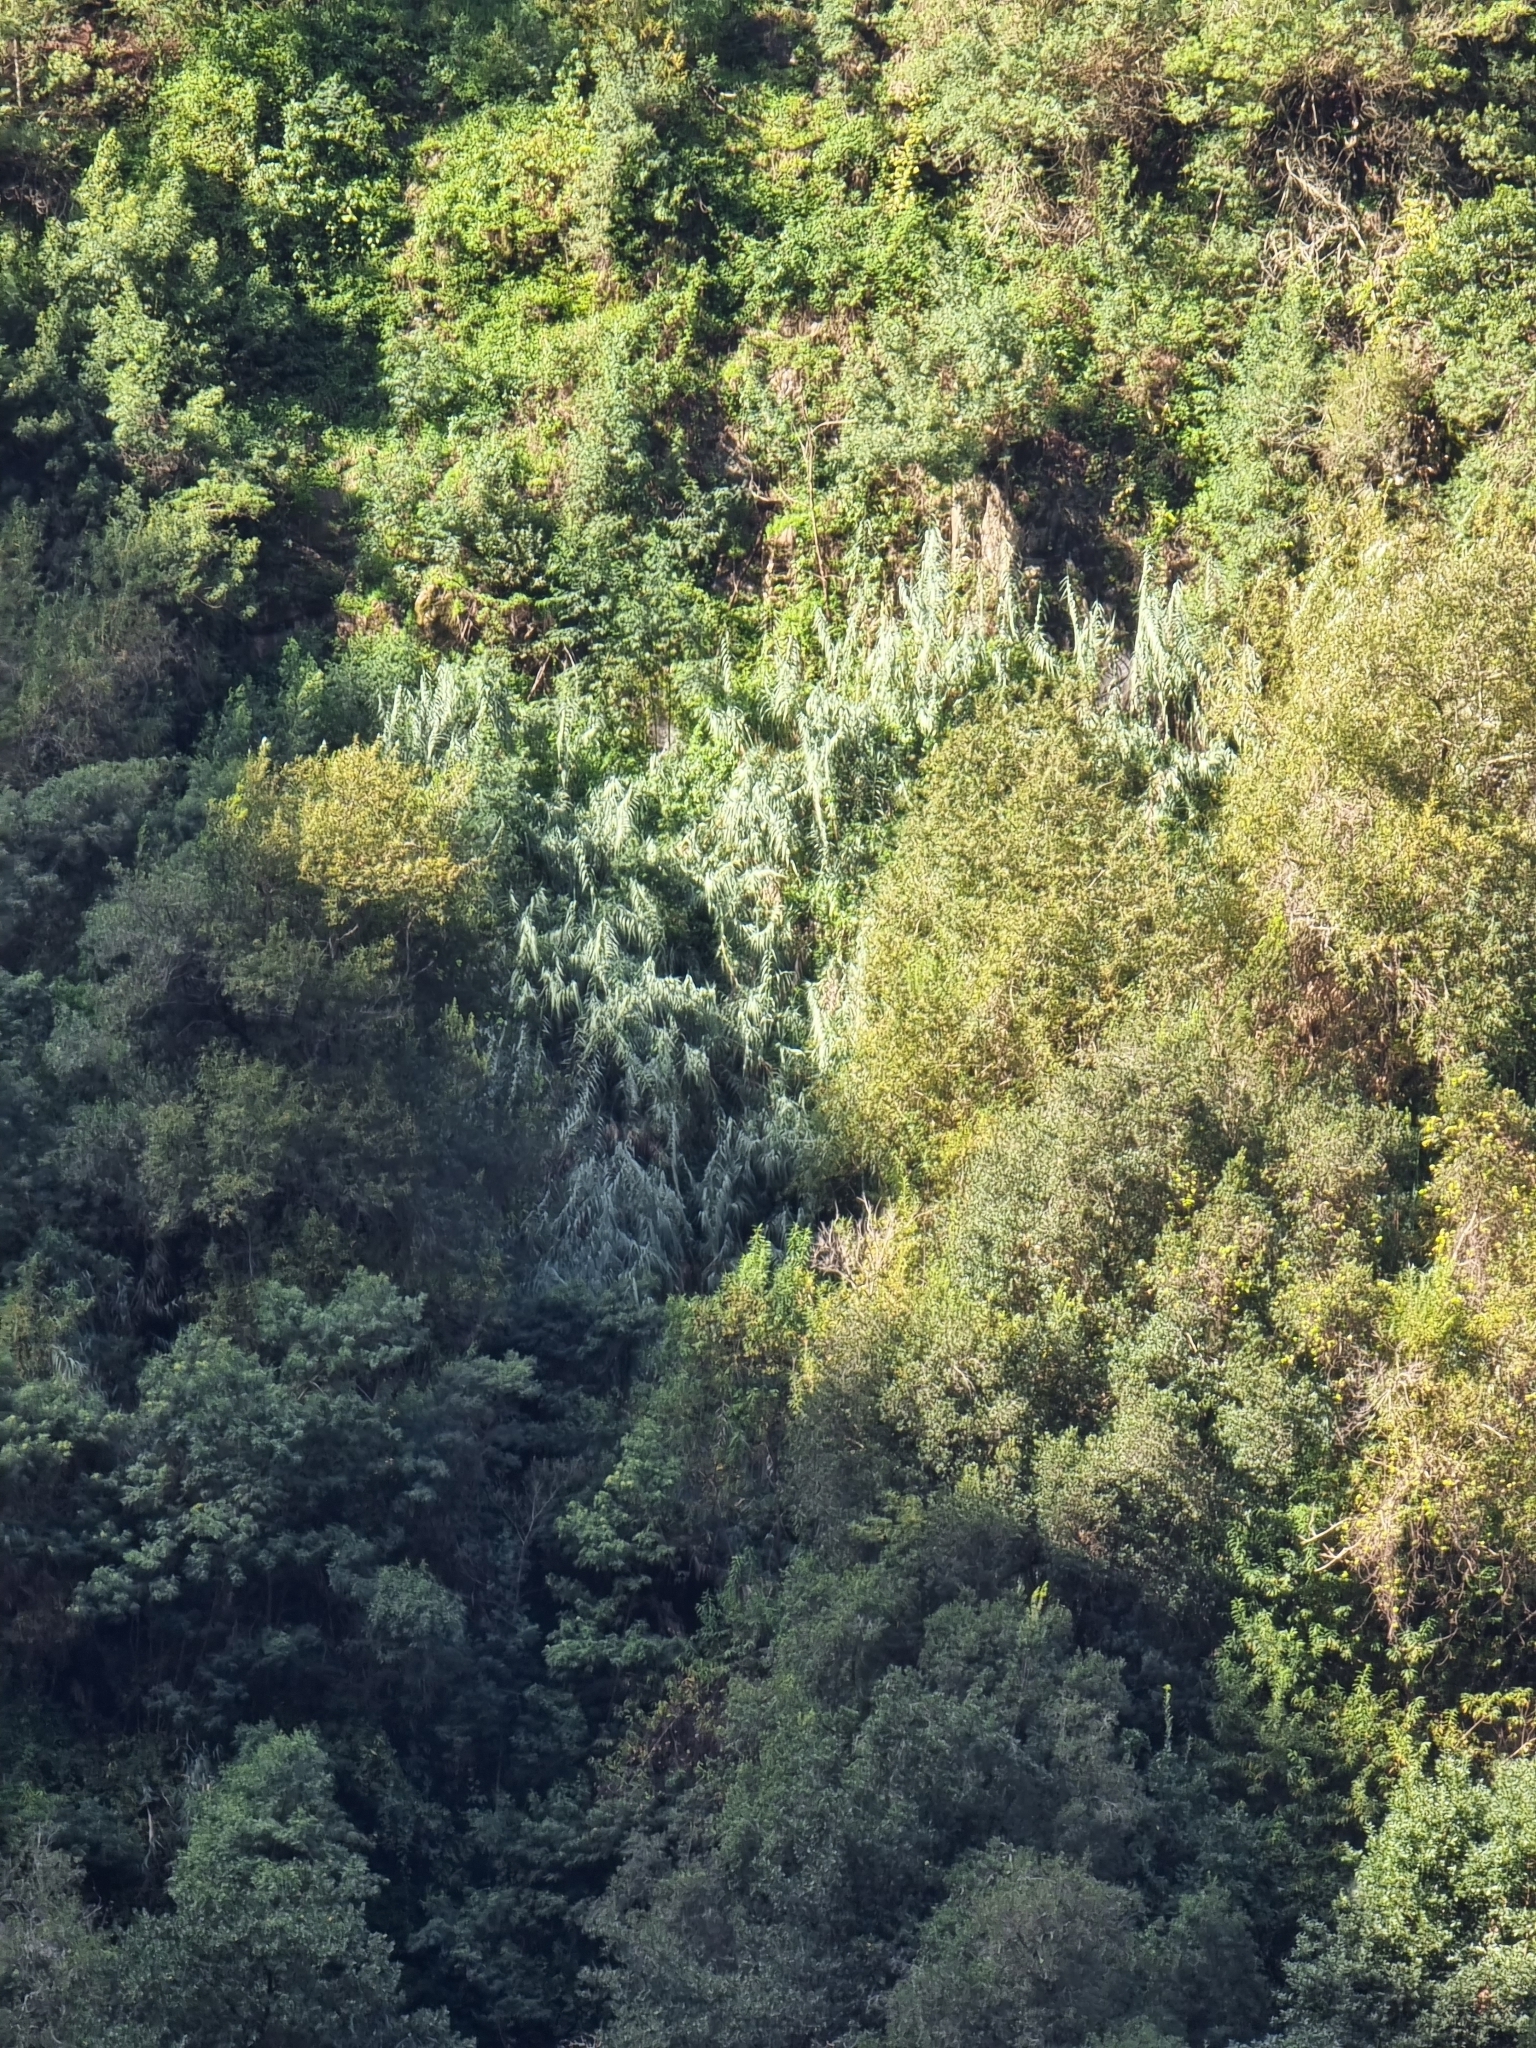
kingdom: Plantae
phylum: Tracheophyta
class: Liliopsida
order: Poales
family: Poaceae
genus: Arundo
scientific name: Arundo donax
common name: Giant reed
